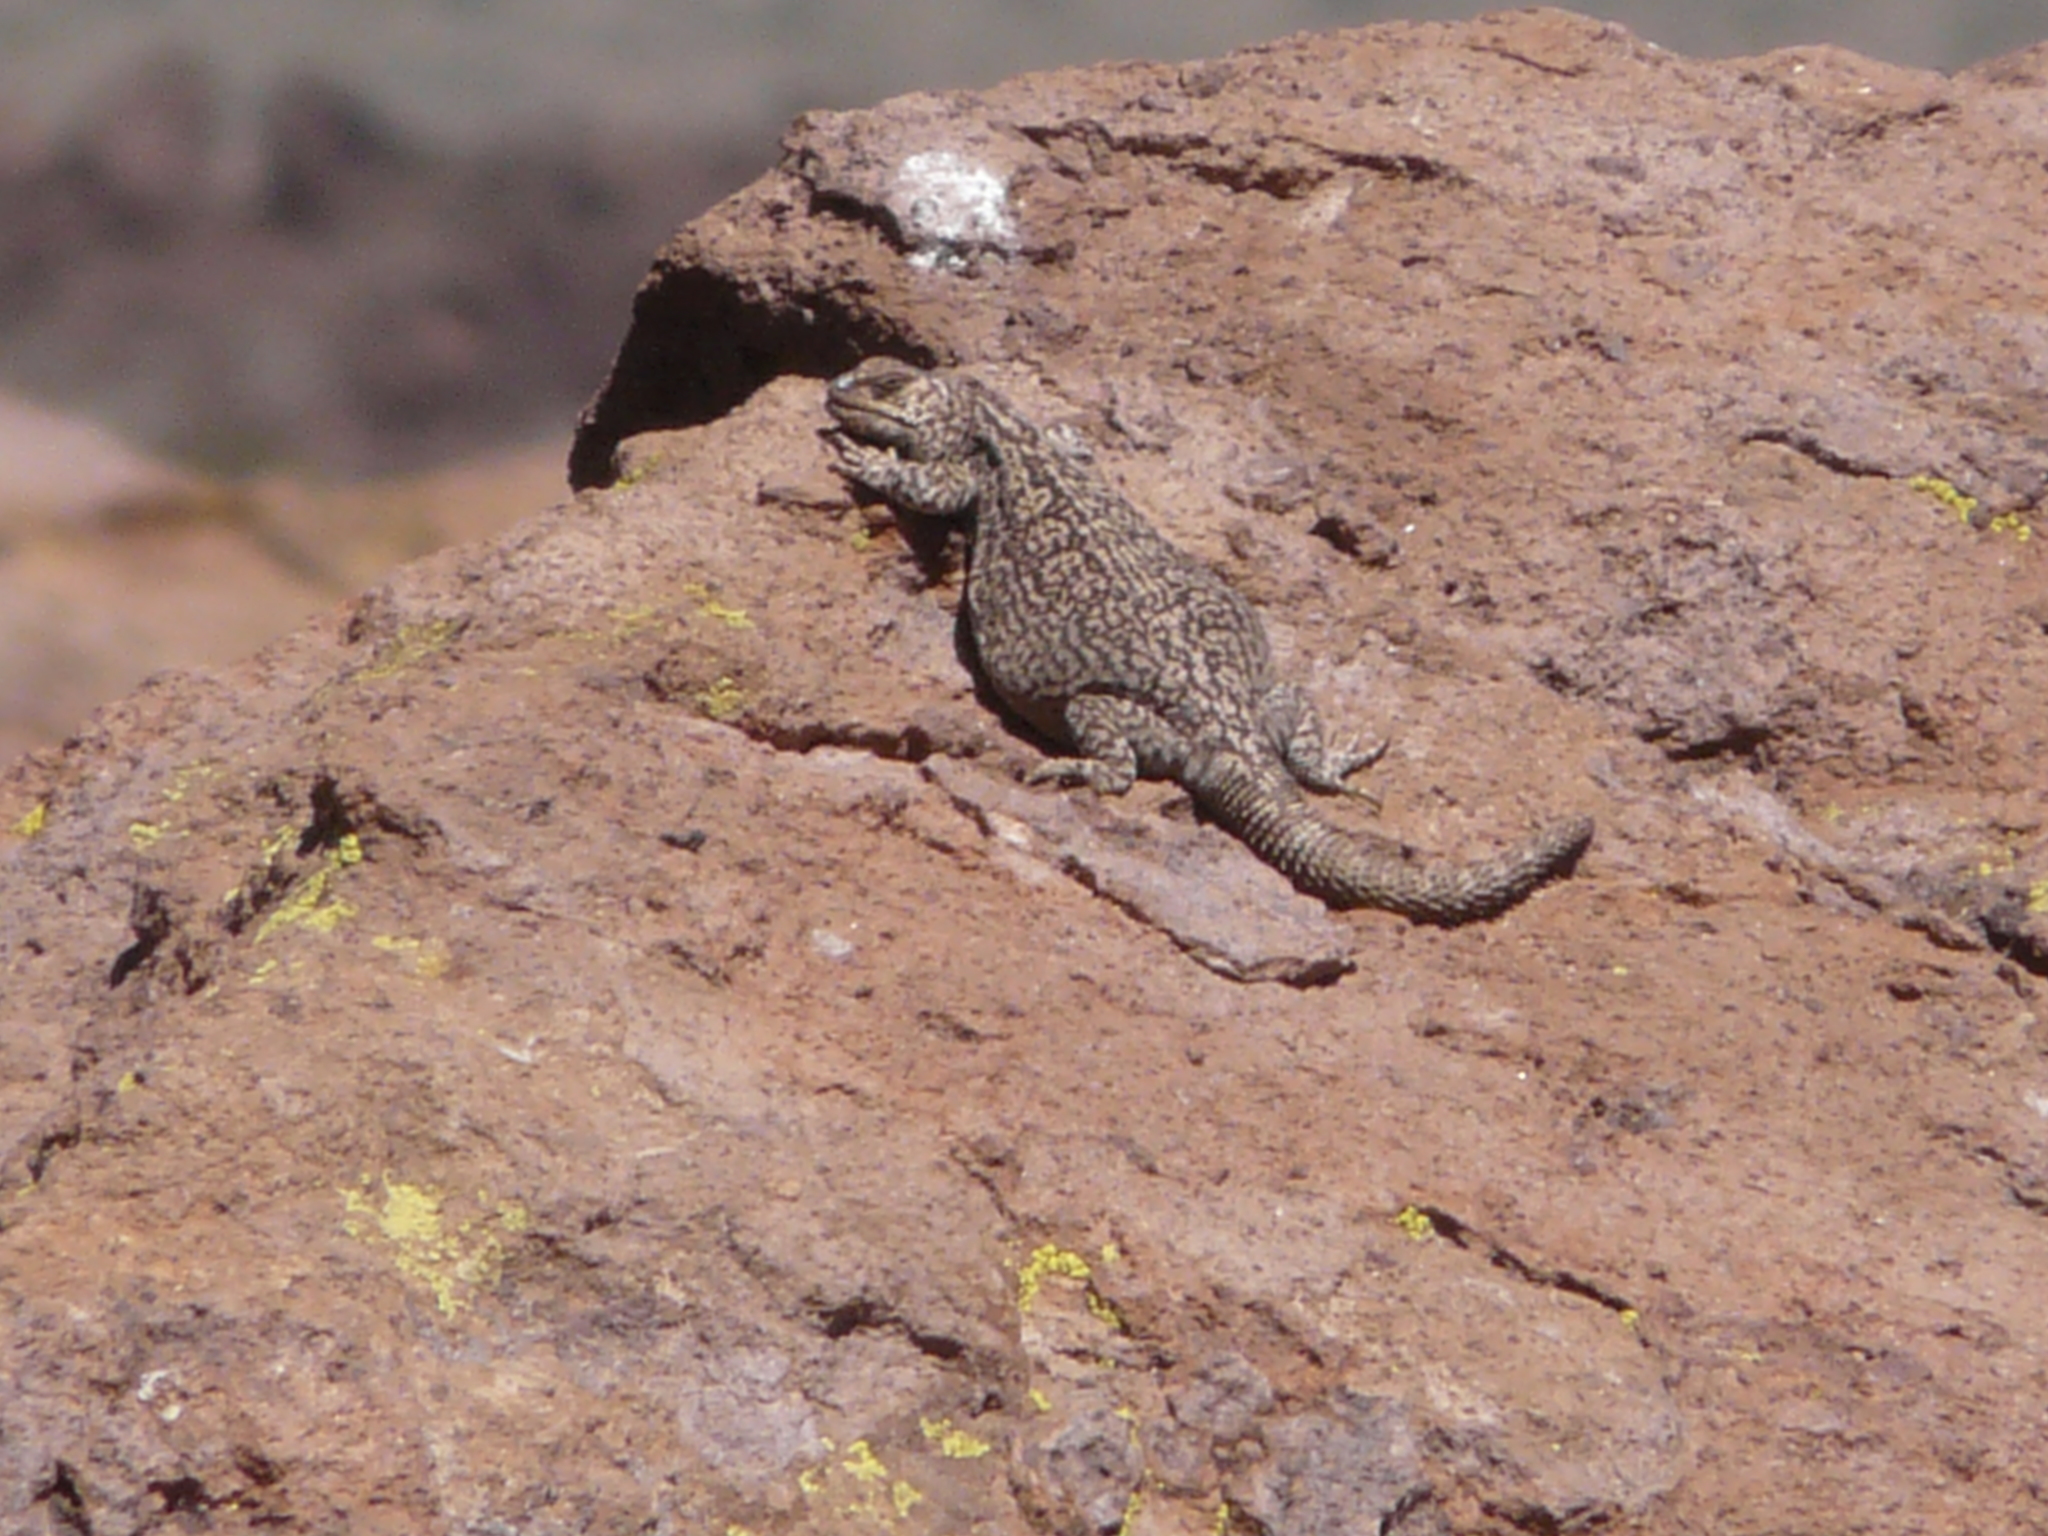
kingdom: Animalia
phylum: Chordata
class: Squamata
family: Liolaemidae
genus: Phymaturus
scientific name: Phymaturus roigorum
